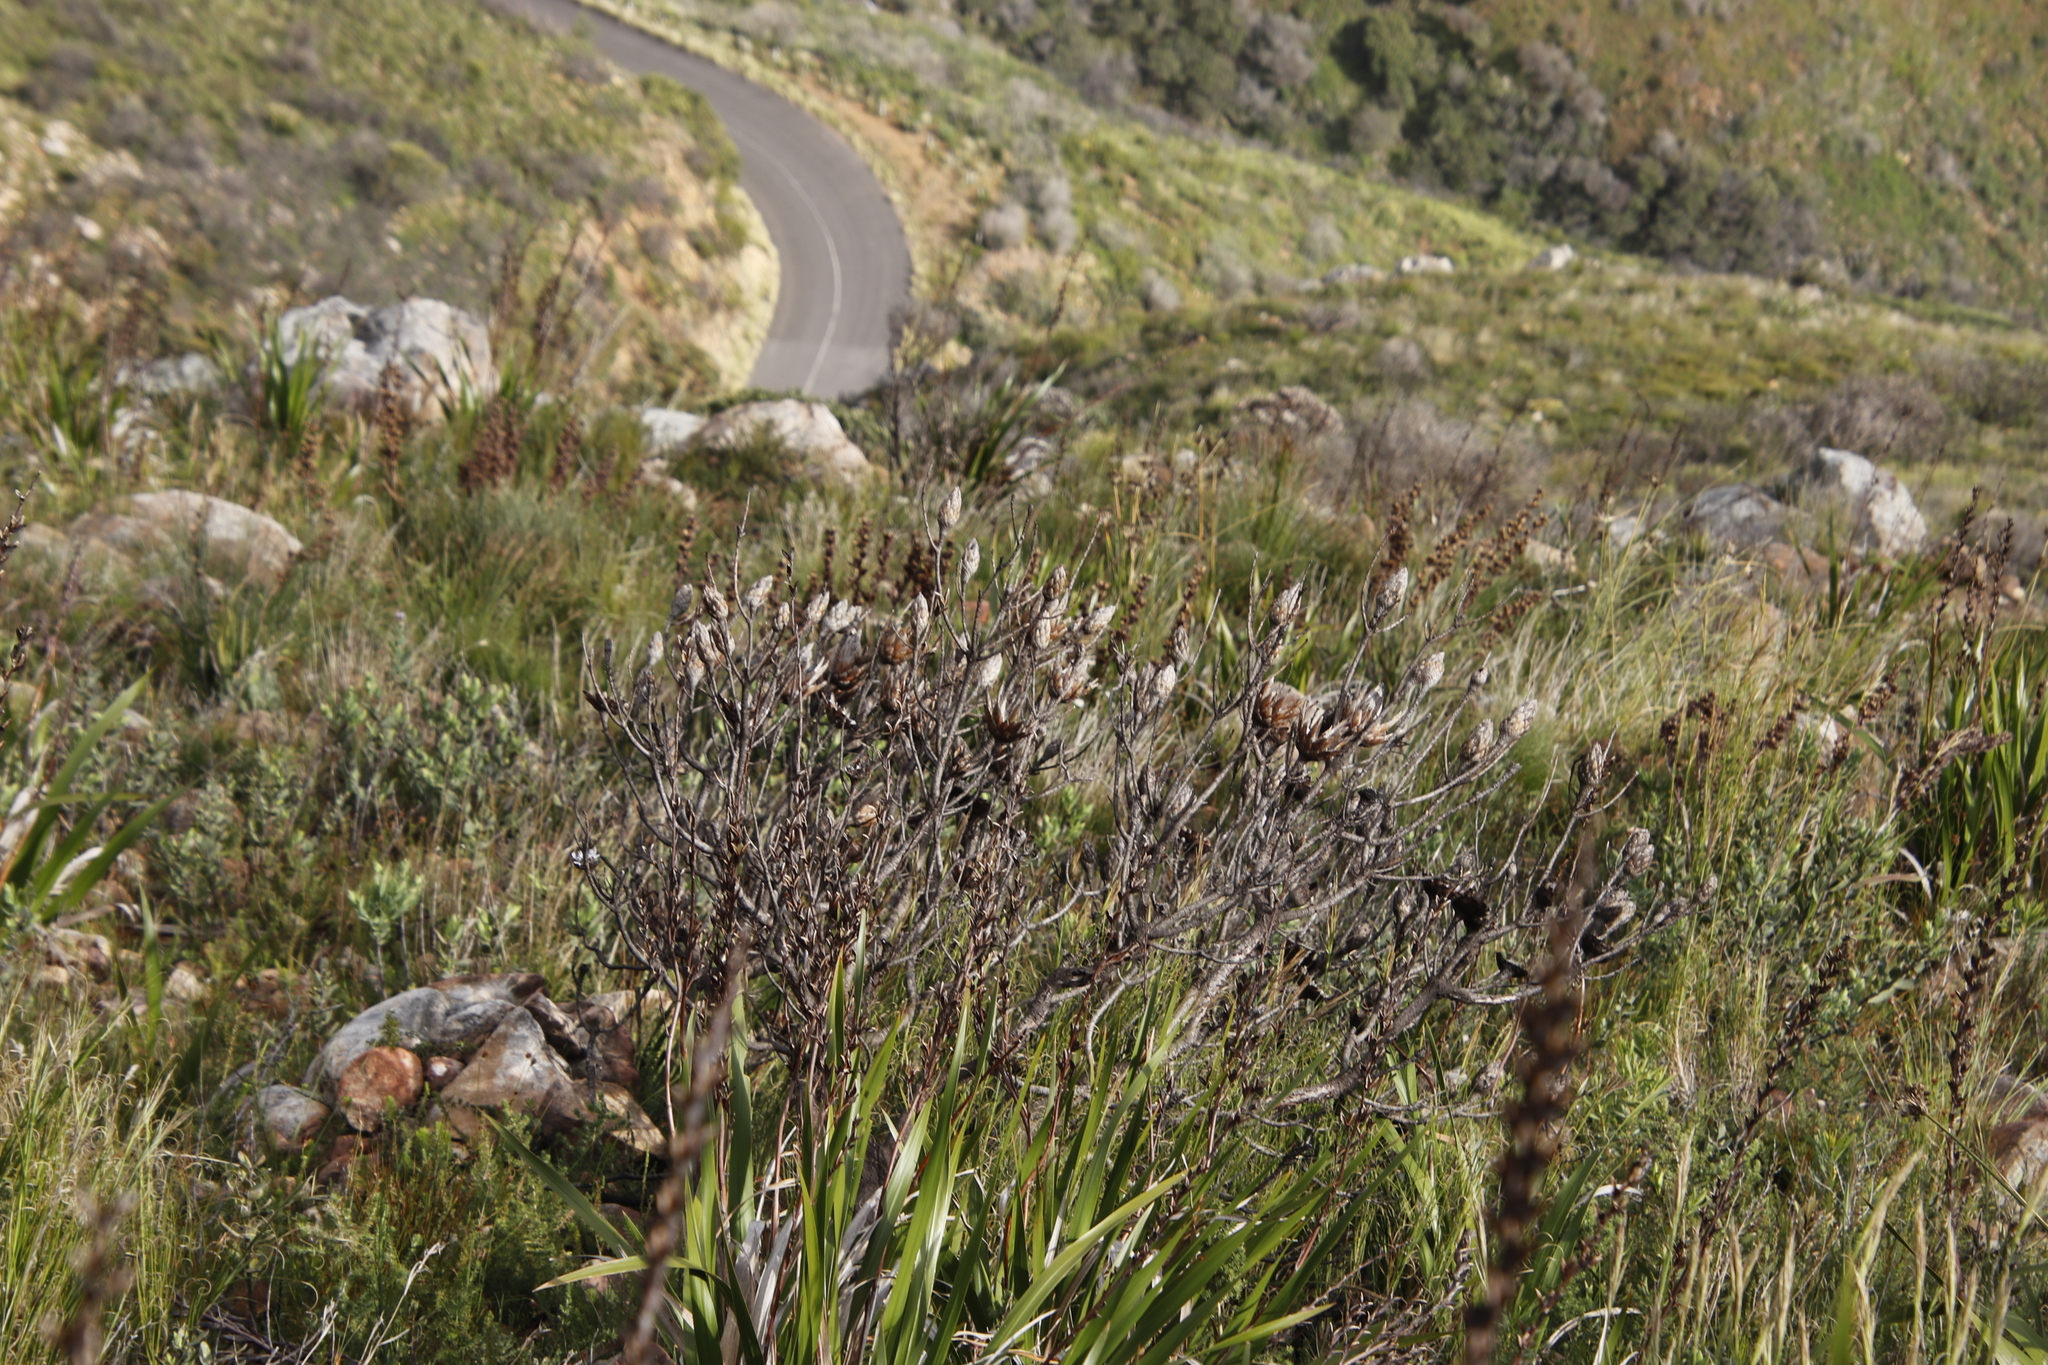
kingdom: Plantae
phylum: Tracheophyta
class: Magnoliopsida
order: Proteales
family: Proteaceae
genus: Protea
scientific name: Protea repens
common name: Sugarbush
